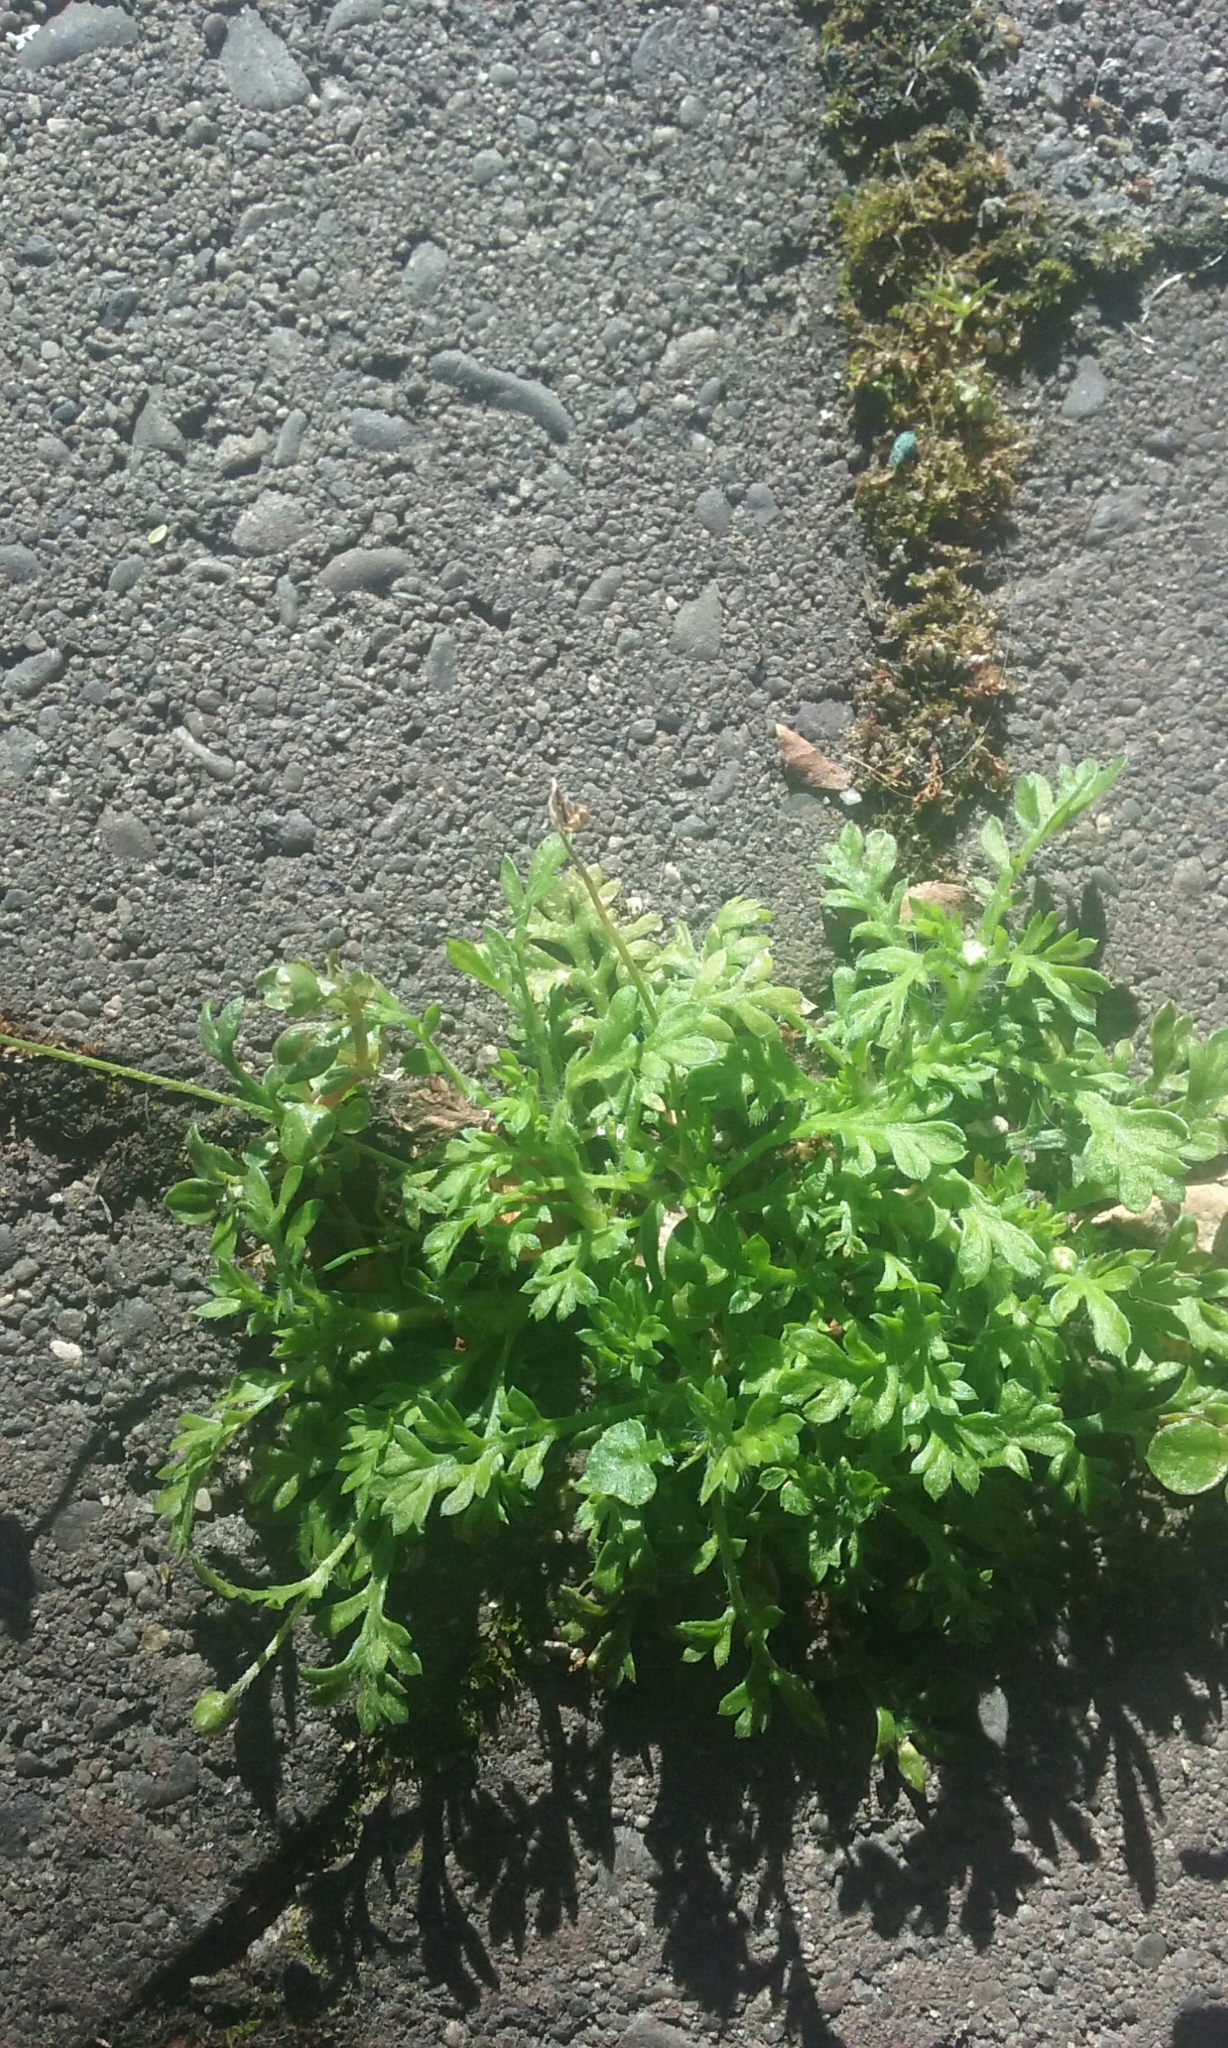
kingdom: Plantae
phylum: Tracheophyta
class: Magnoliopsida
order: Asterales
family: Asteraceae
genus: Cotula
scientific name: Cotula australis
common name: Australian waterbuttons
